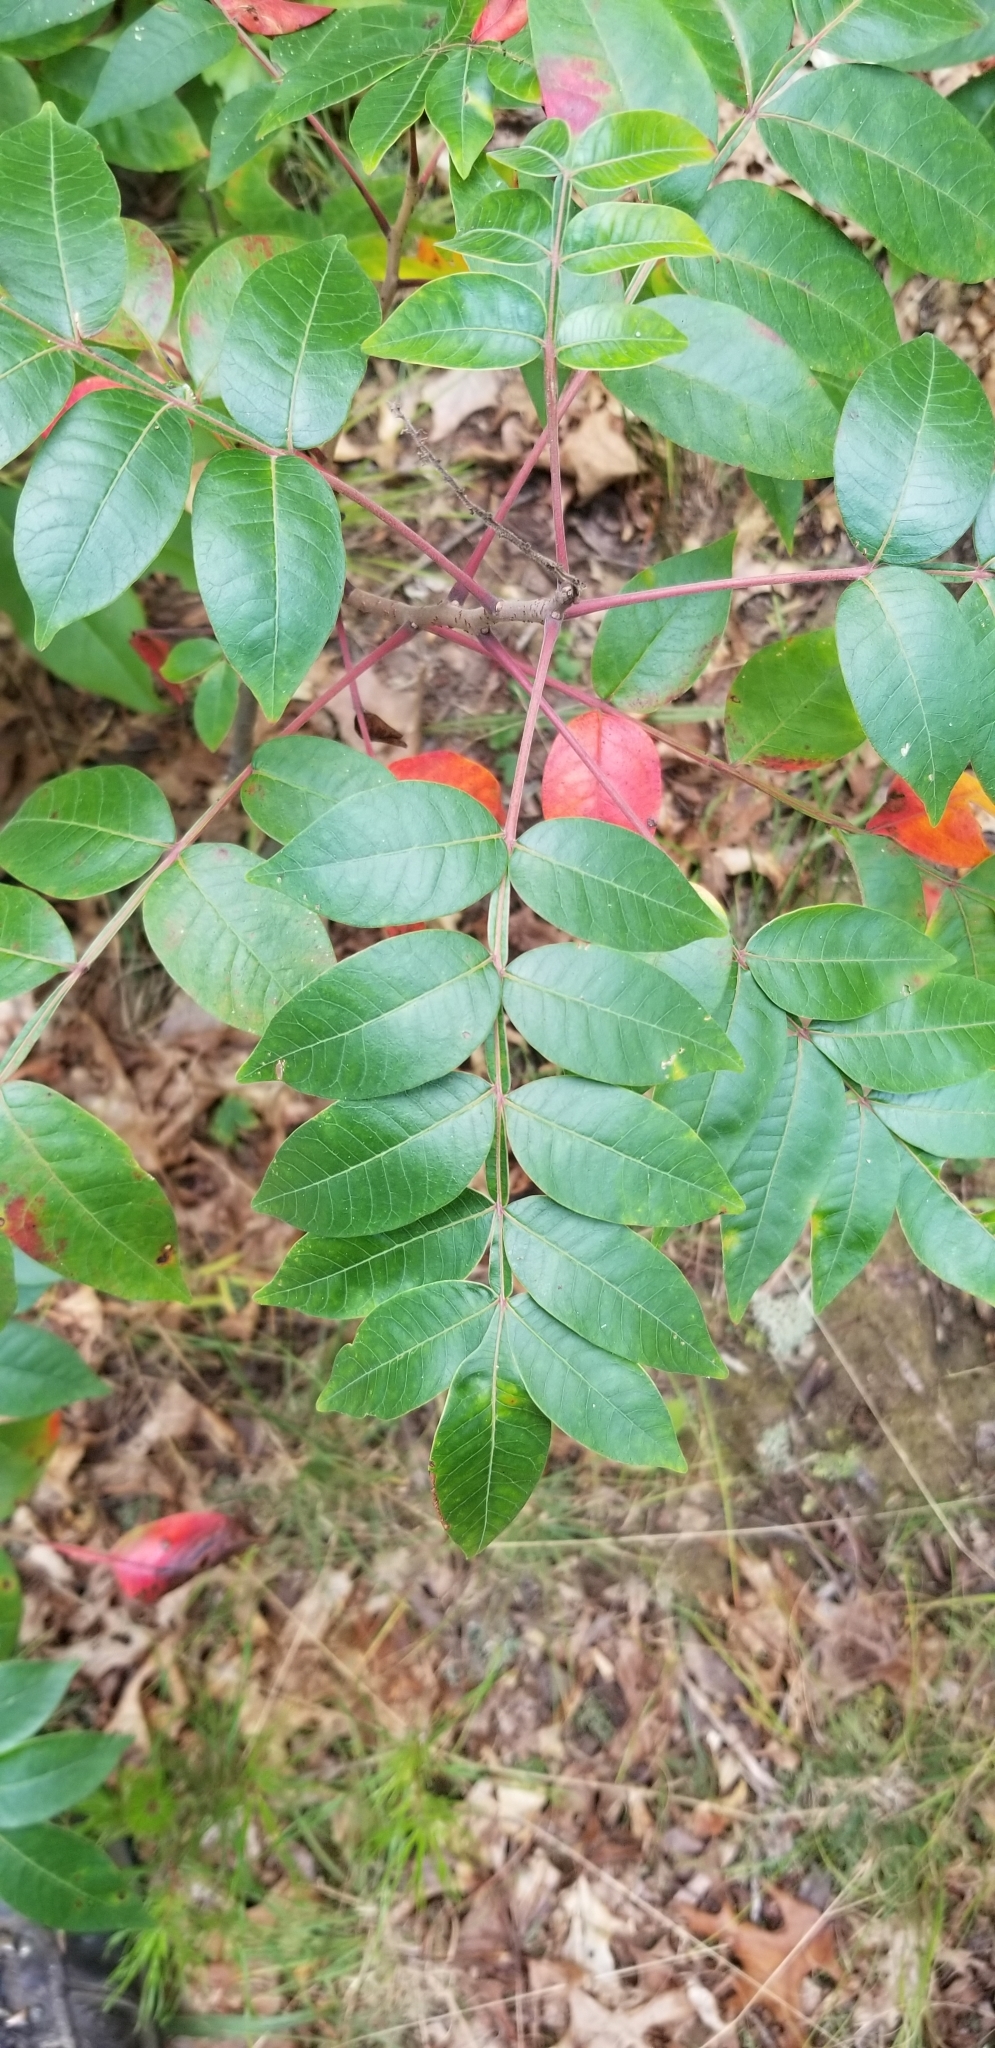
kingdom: Plantae
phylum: Tracheophyta
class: Magnoliopsida
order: Sapindales
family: Anacardiaceae
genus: Rhus
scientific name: Rhus copallina
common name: Shining sumac
